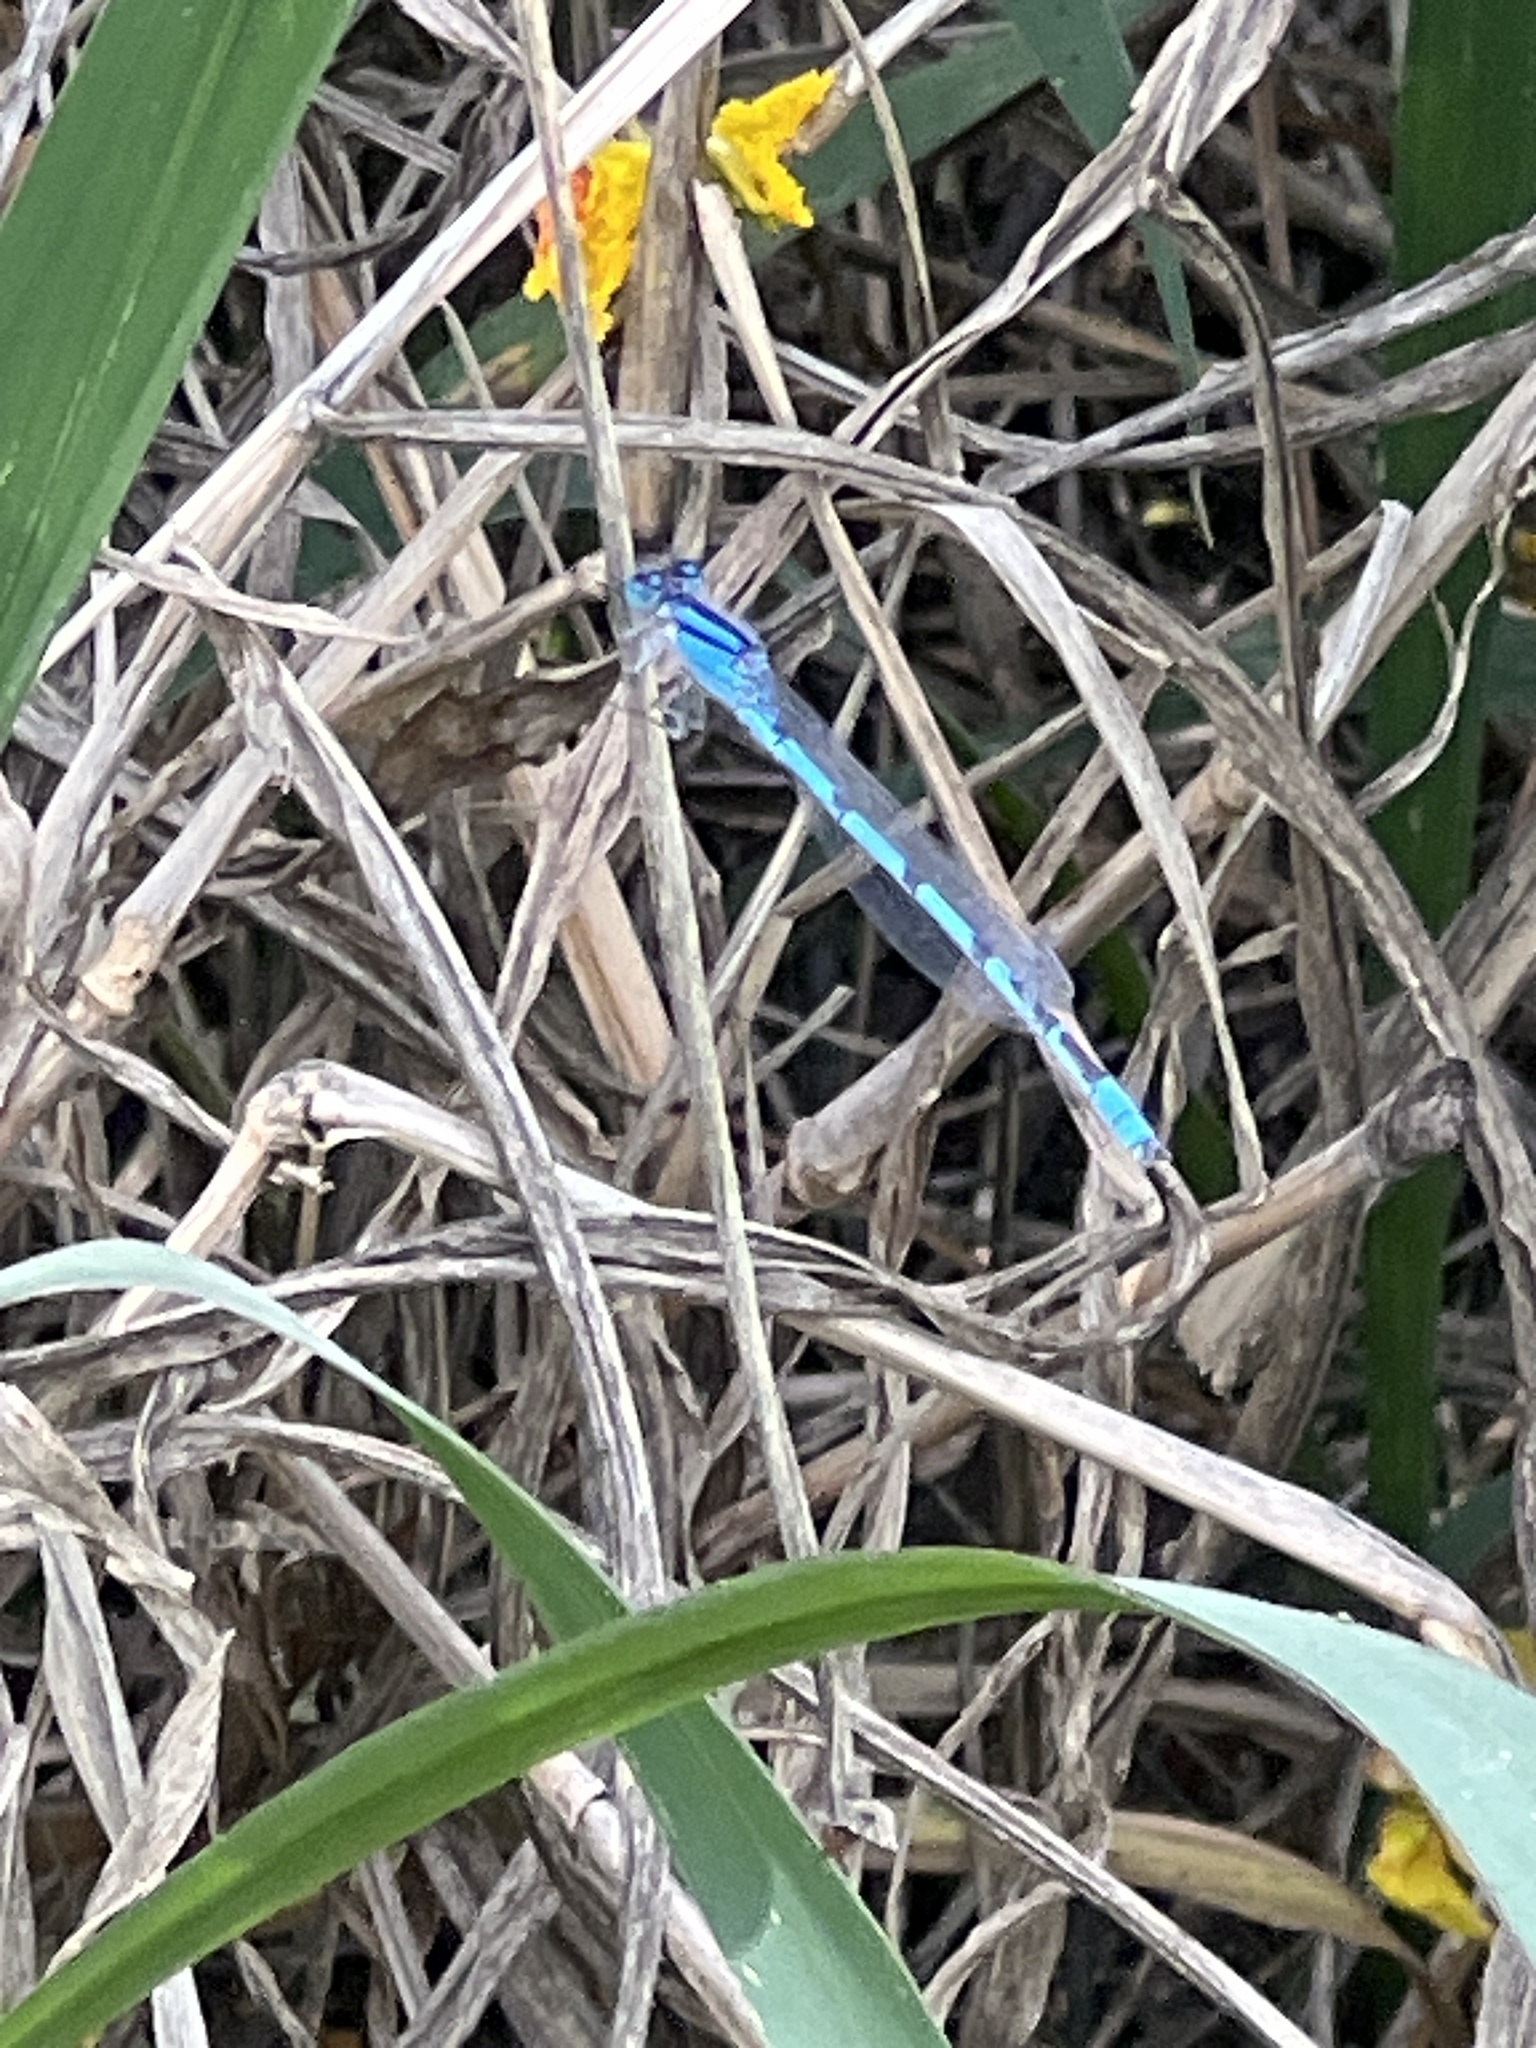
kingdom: Animalia
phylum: Arthropoda
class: Insecta
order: Odonata
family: Coenagrionidae
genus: Enallagma
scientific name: Enallagma civile
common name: Damselfly
